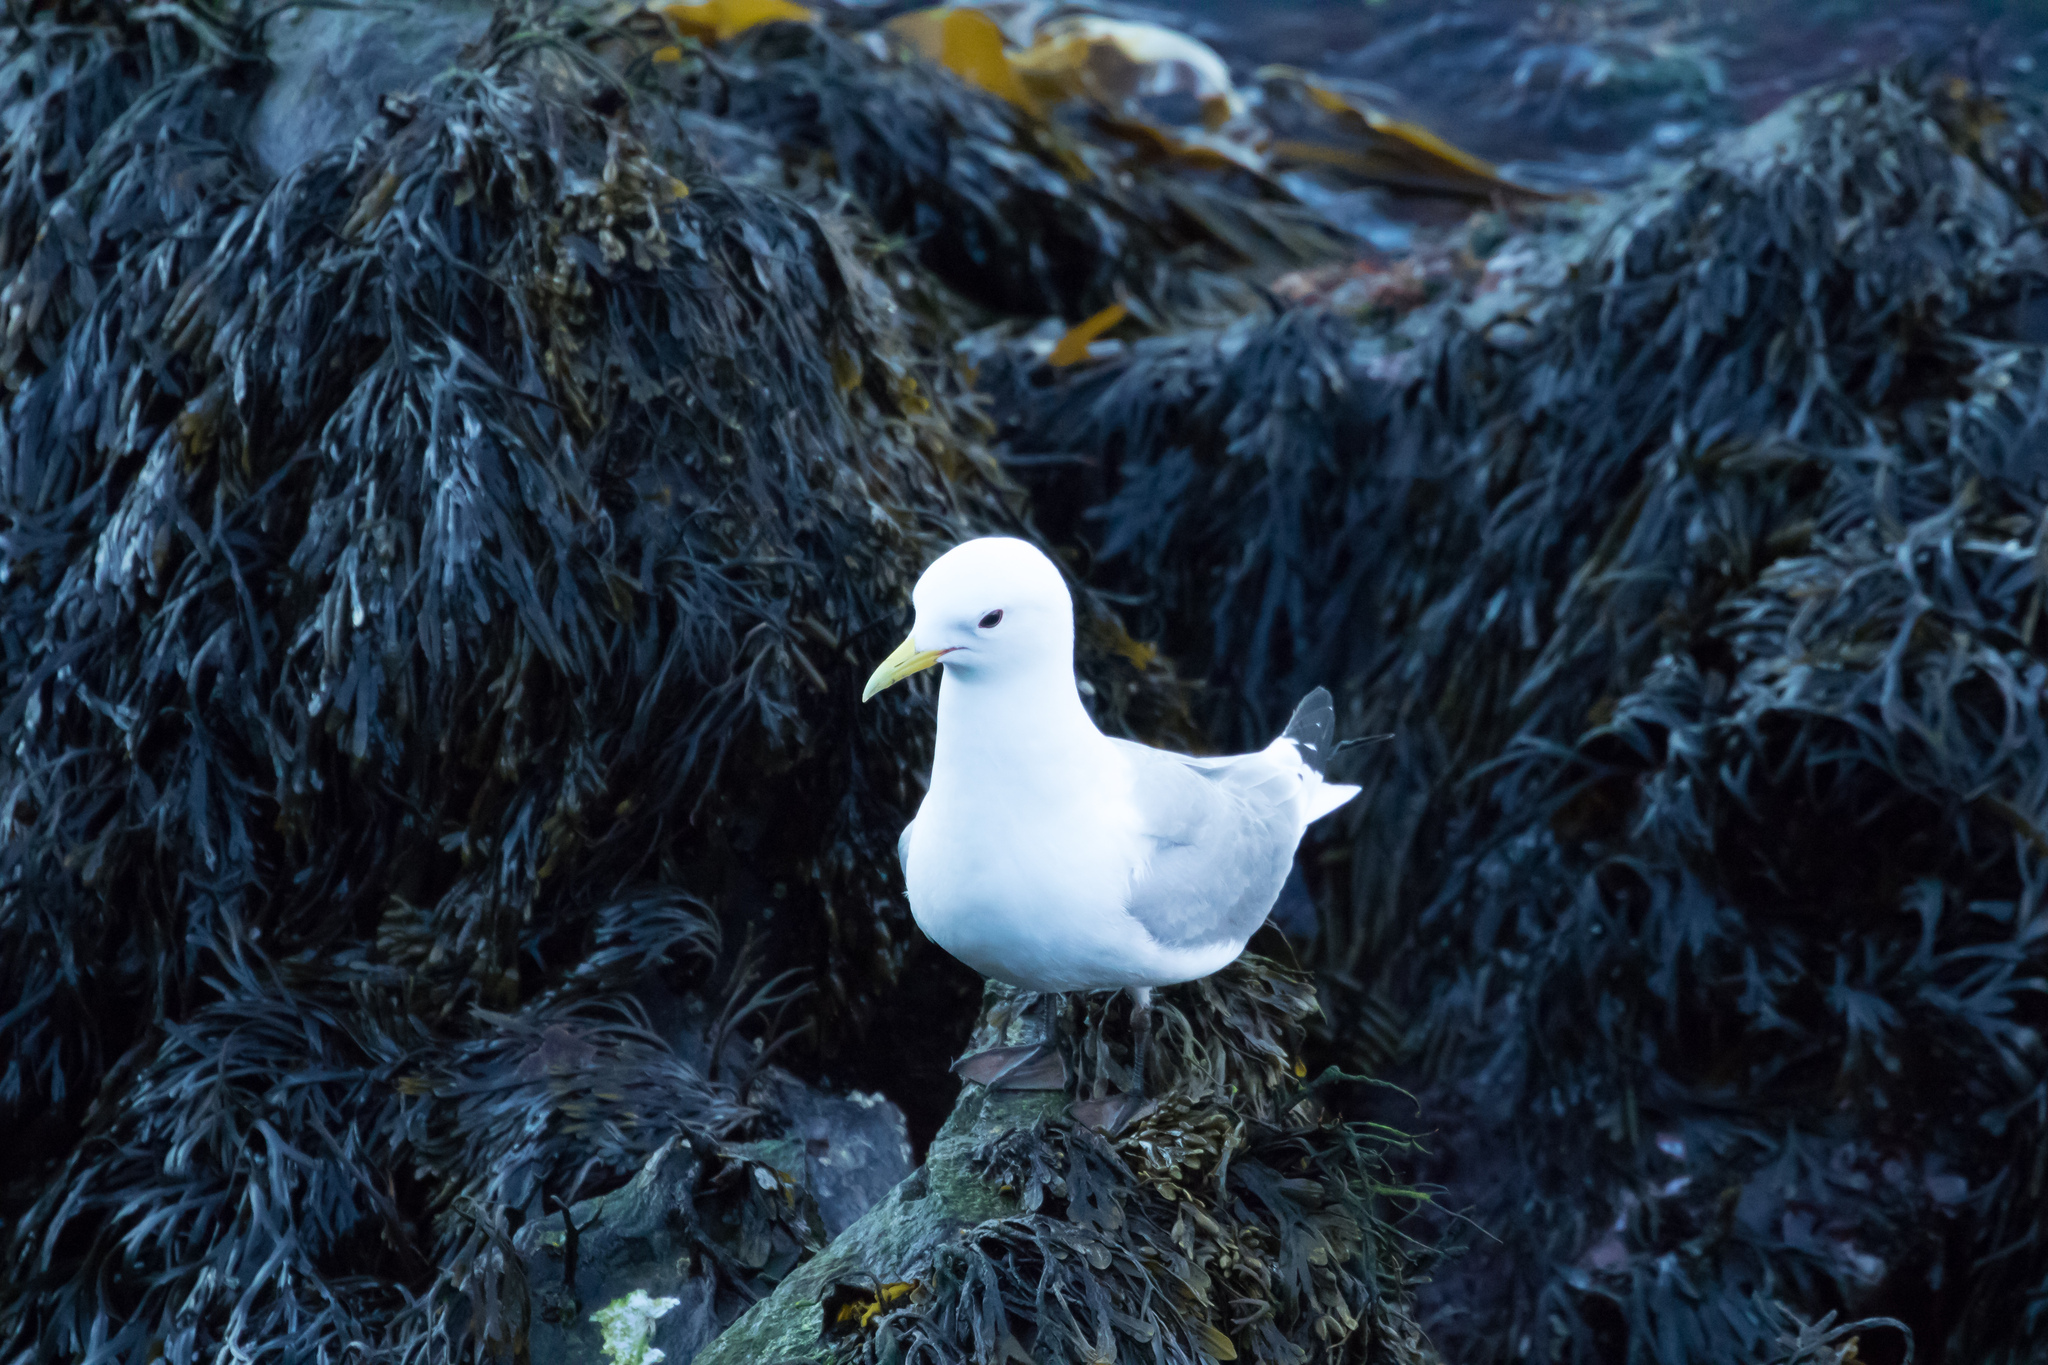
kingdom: Animalia
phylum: Chordata
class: Aves
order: Charadriiformes
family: Laridae
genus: Rissa
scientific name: Rissa tridactyla
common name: Black-legged kittiwake
